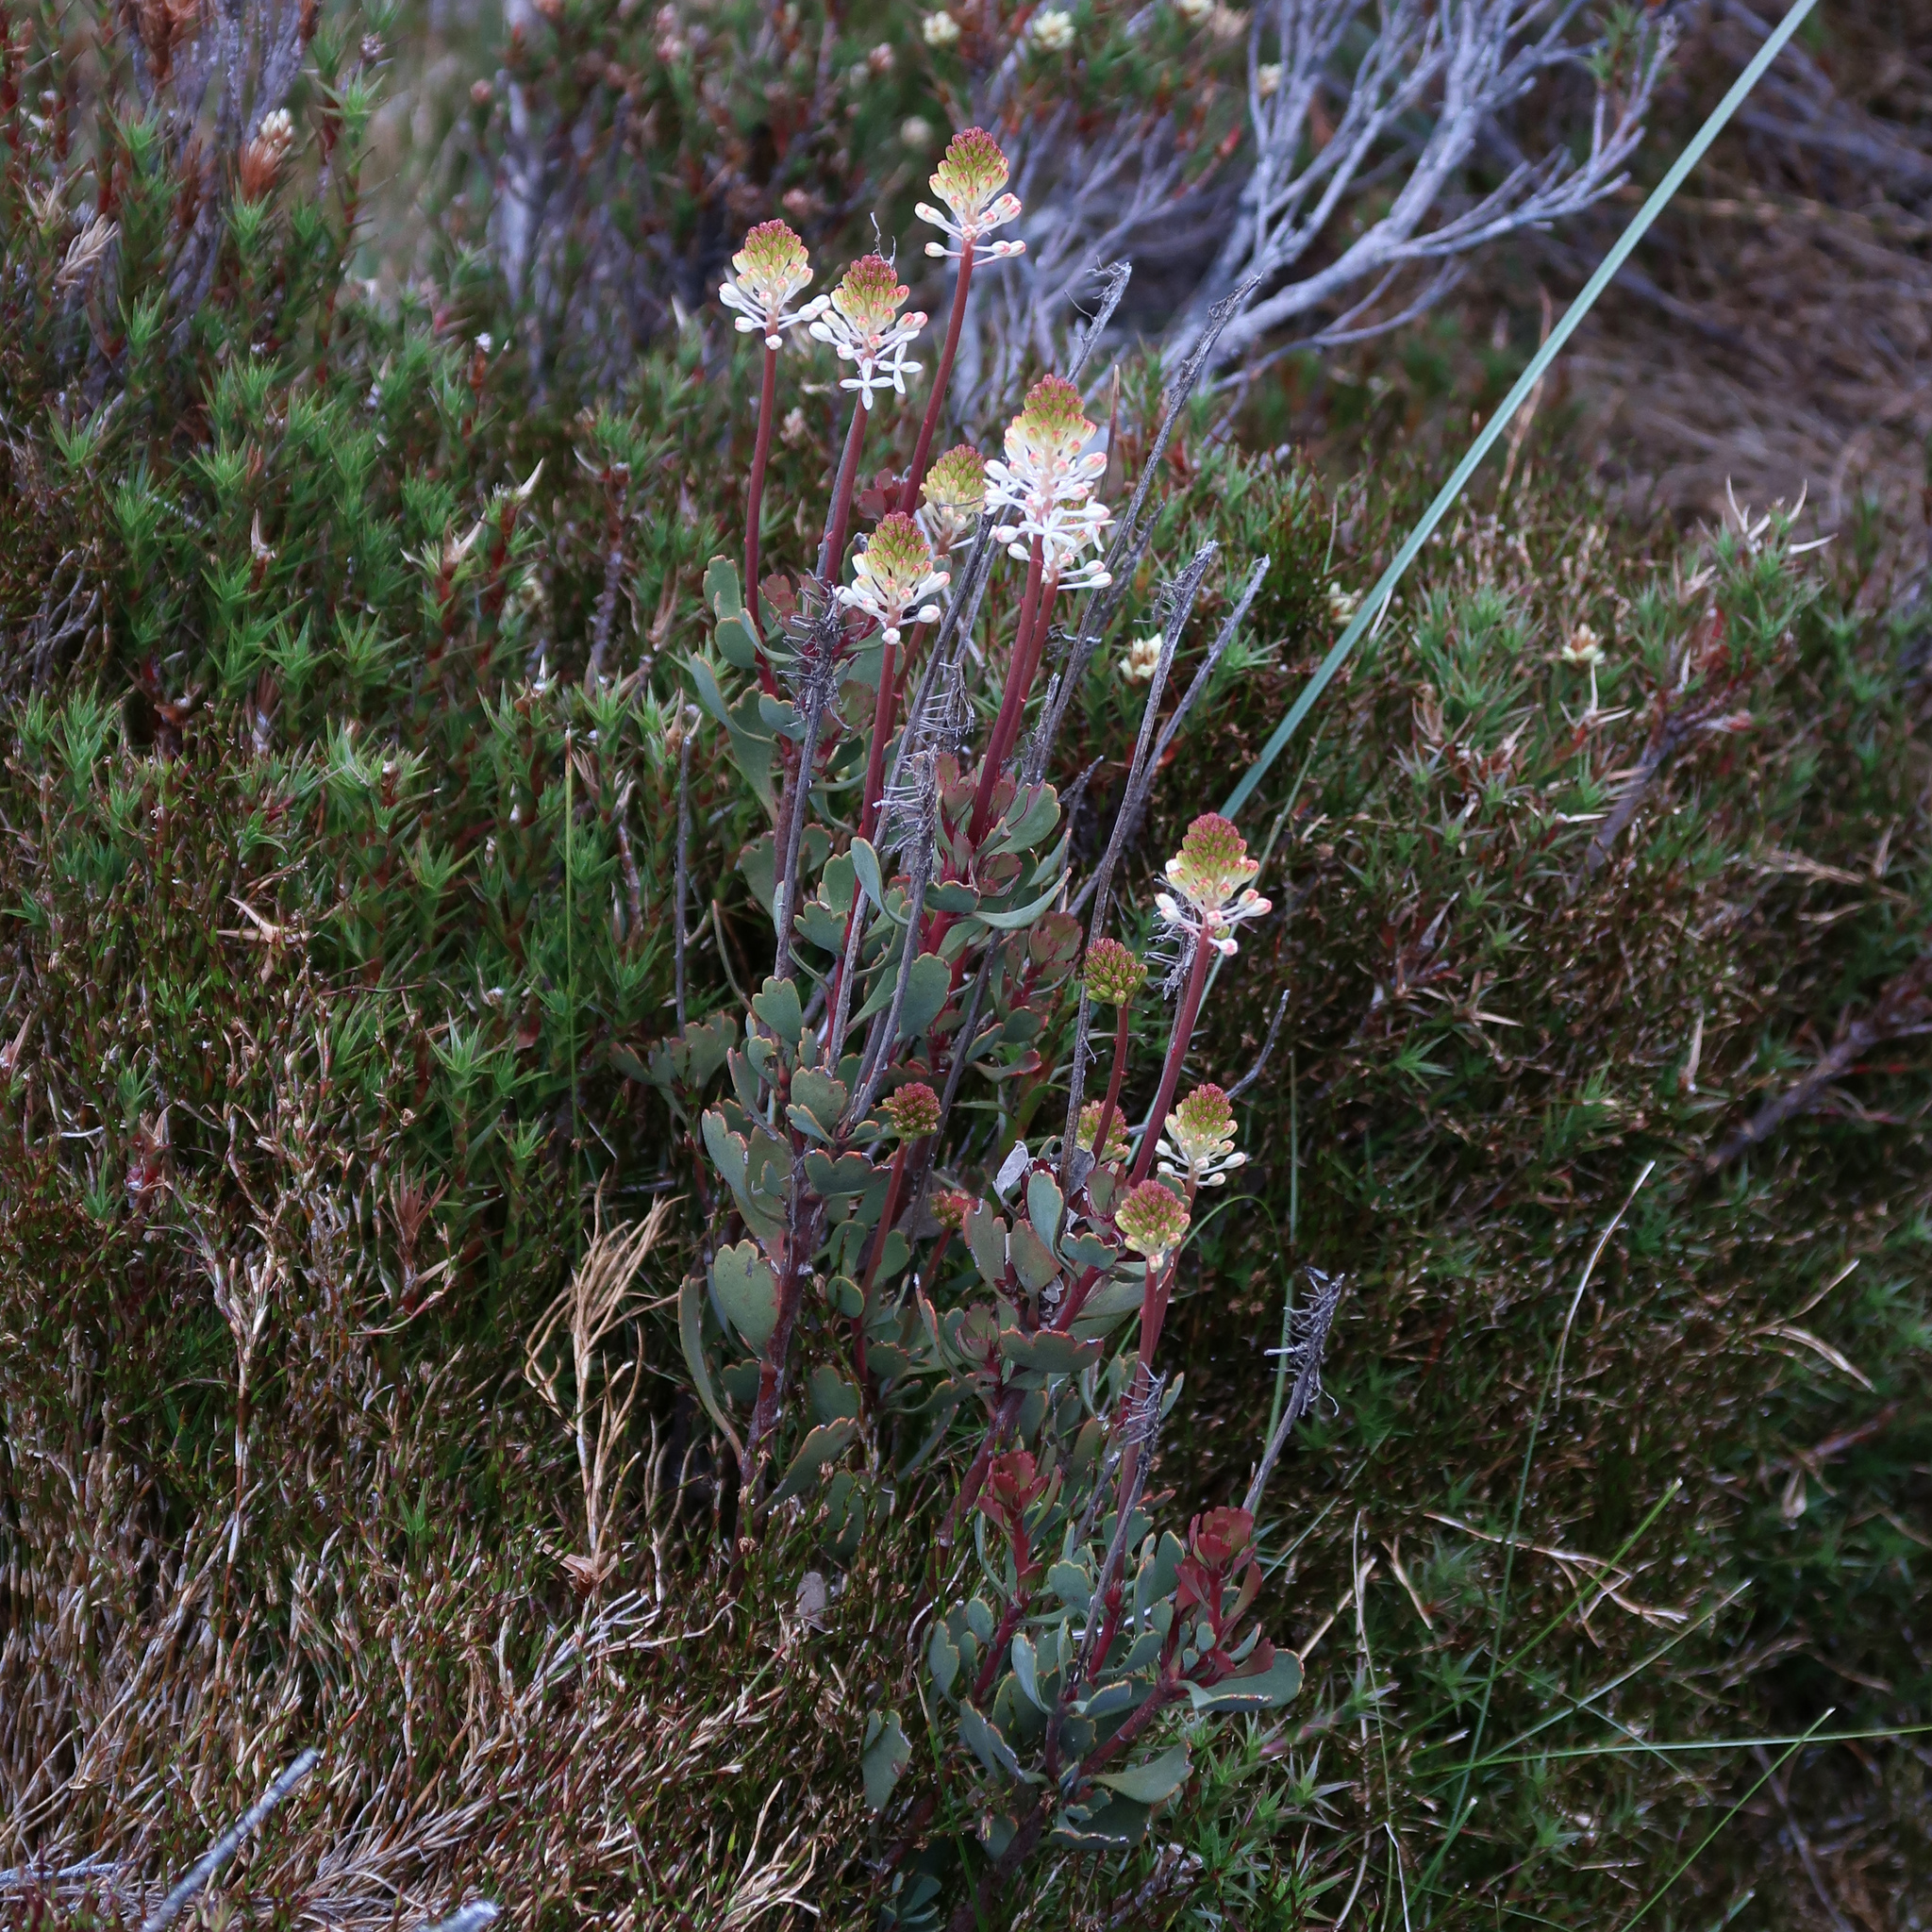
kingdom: Plantae
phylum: Tracheophyta
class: Magnoliopsida
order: Proteales
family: Proteaceae
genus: Bellendena
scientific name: Bellendena montana
